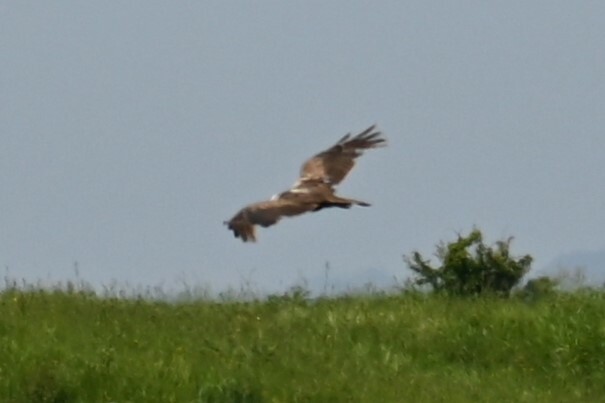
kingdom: Animalia
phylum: Chordata
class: Aves
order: Accipitriformes
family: Accipitridae
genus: Circus
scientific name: Circus aeruginosus
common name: Western marsh harrier
